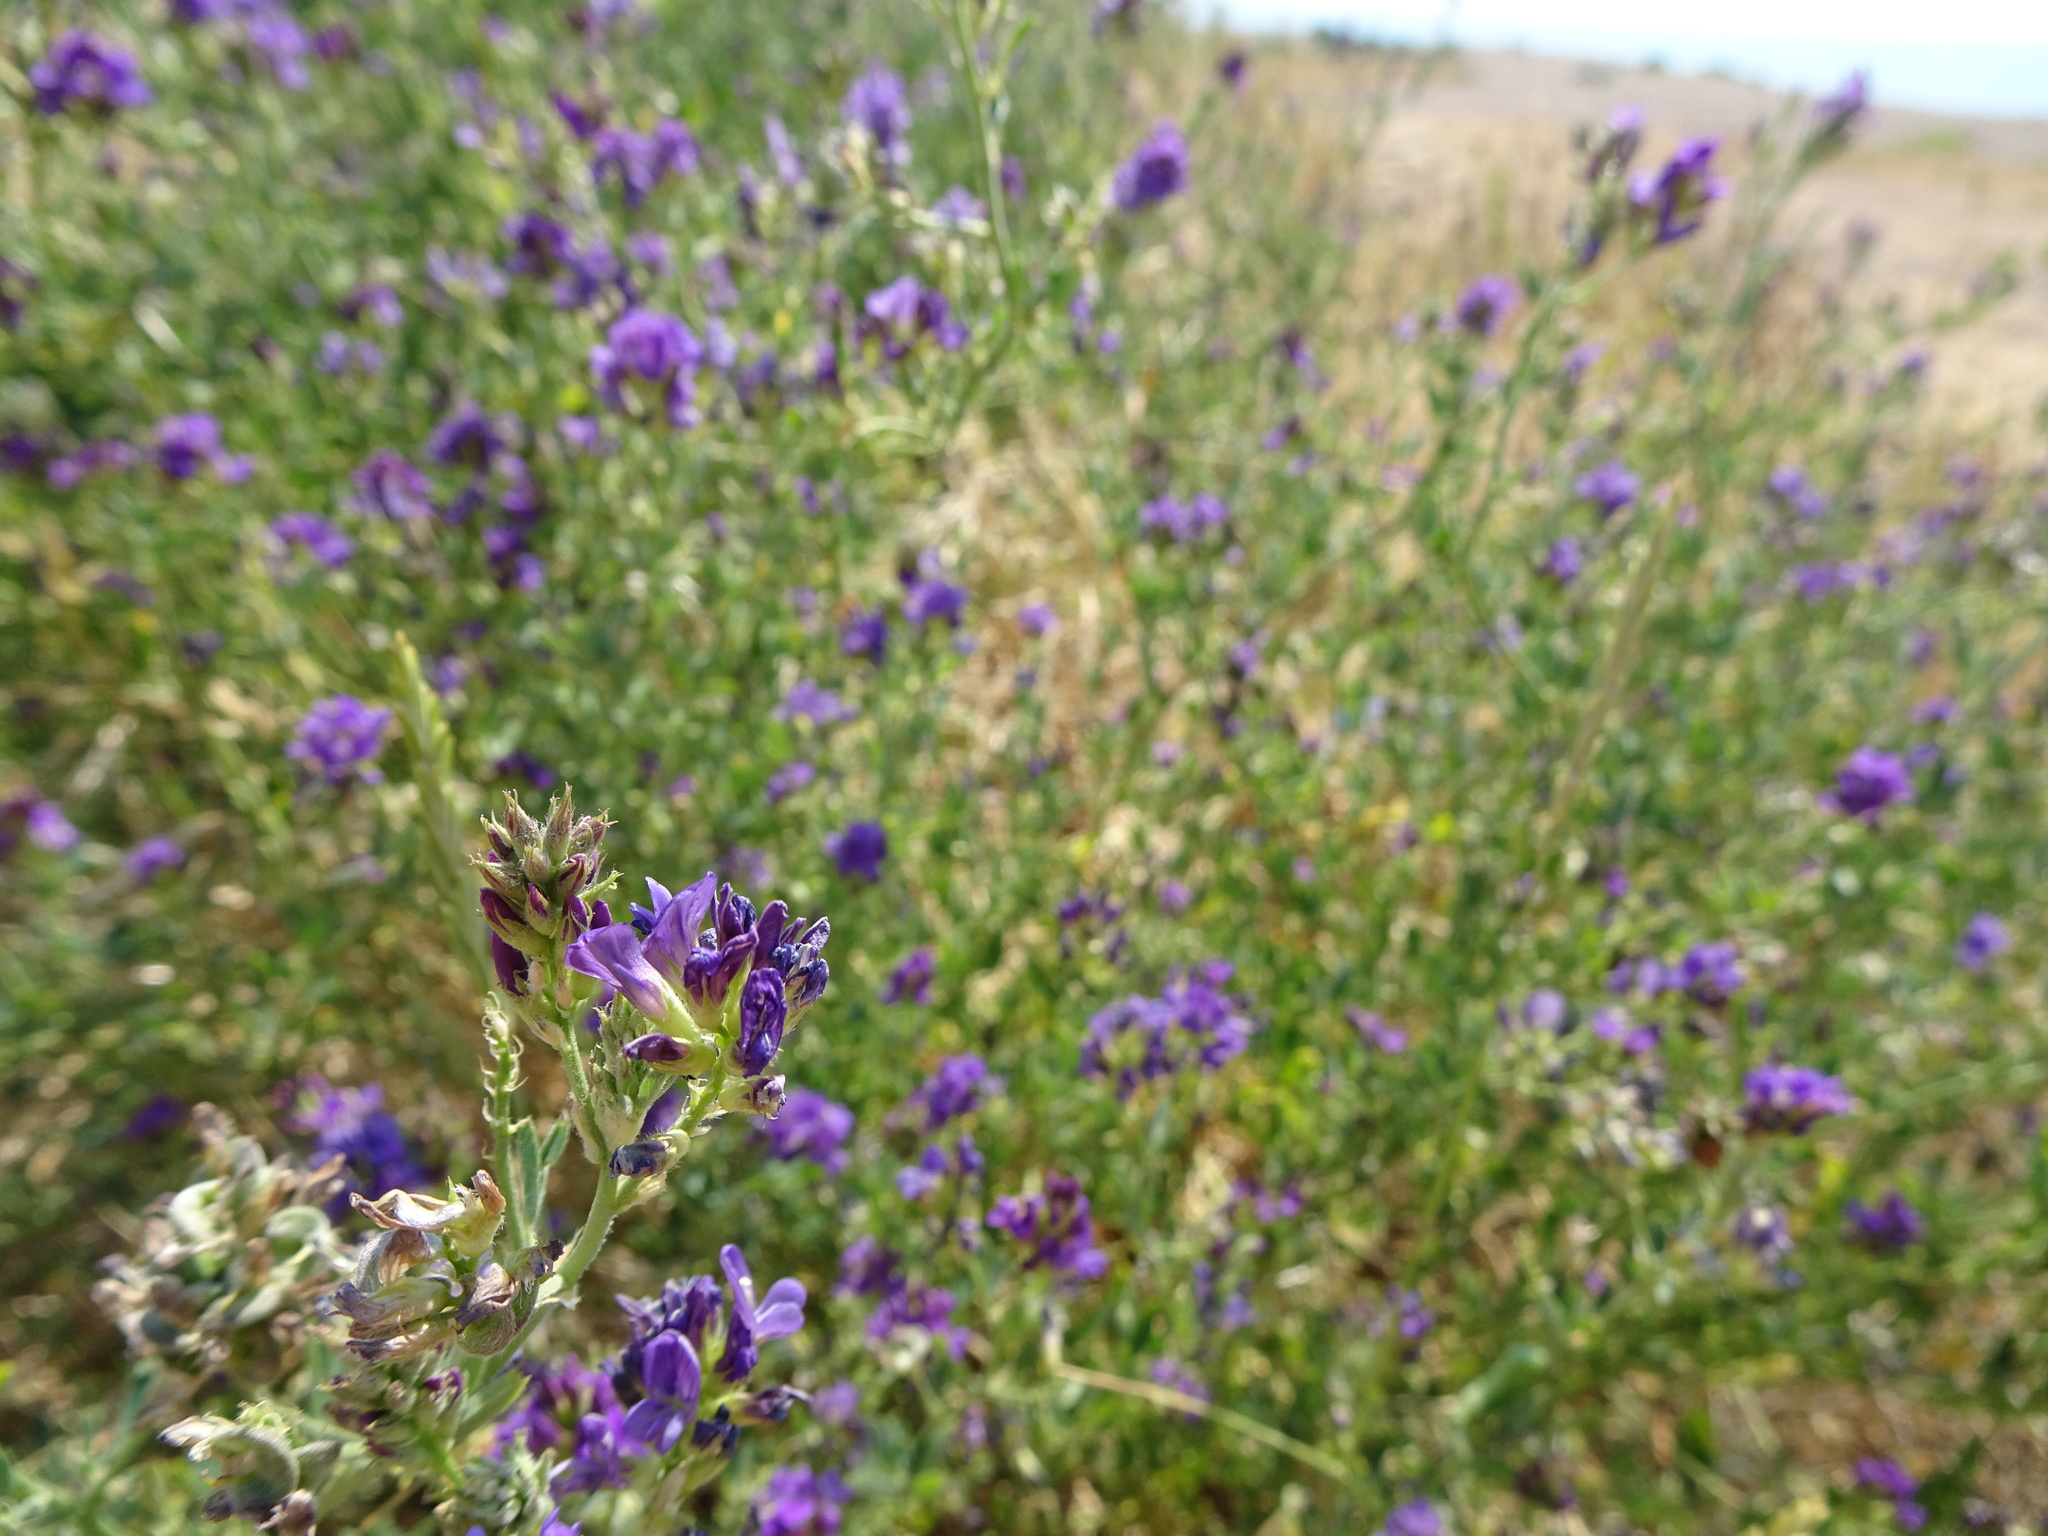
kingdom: Plantae
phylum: Tracheophyta
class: Magnoliopsida
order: Fabales
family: Fabaceae
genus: Medicago
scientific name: Medicago sativa
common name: Alfalfa
